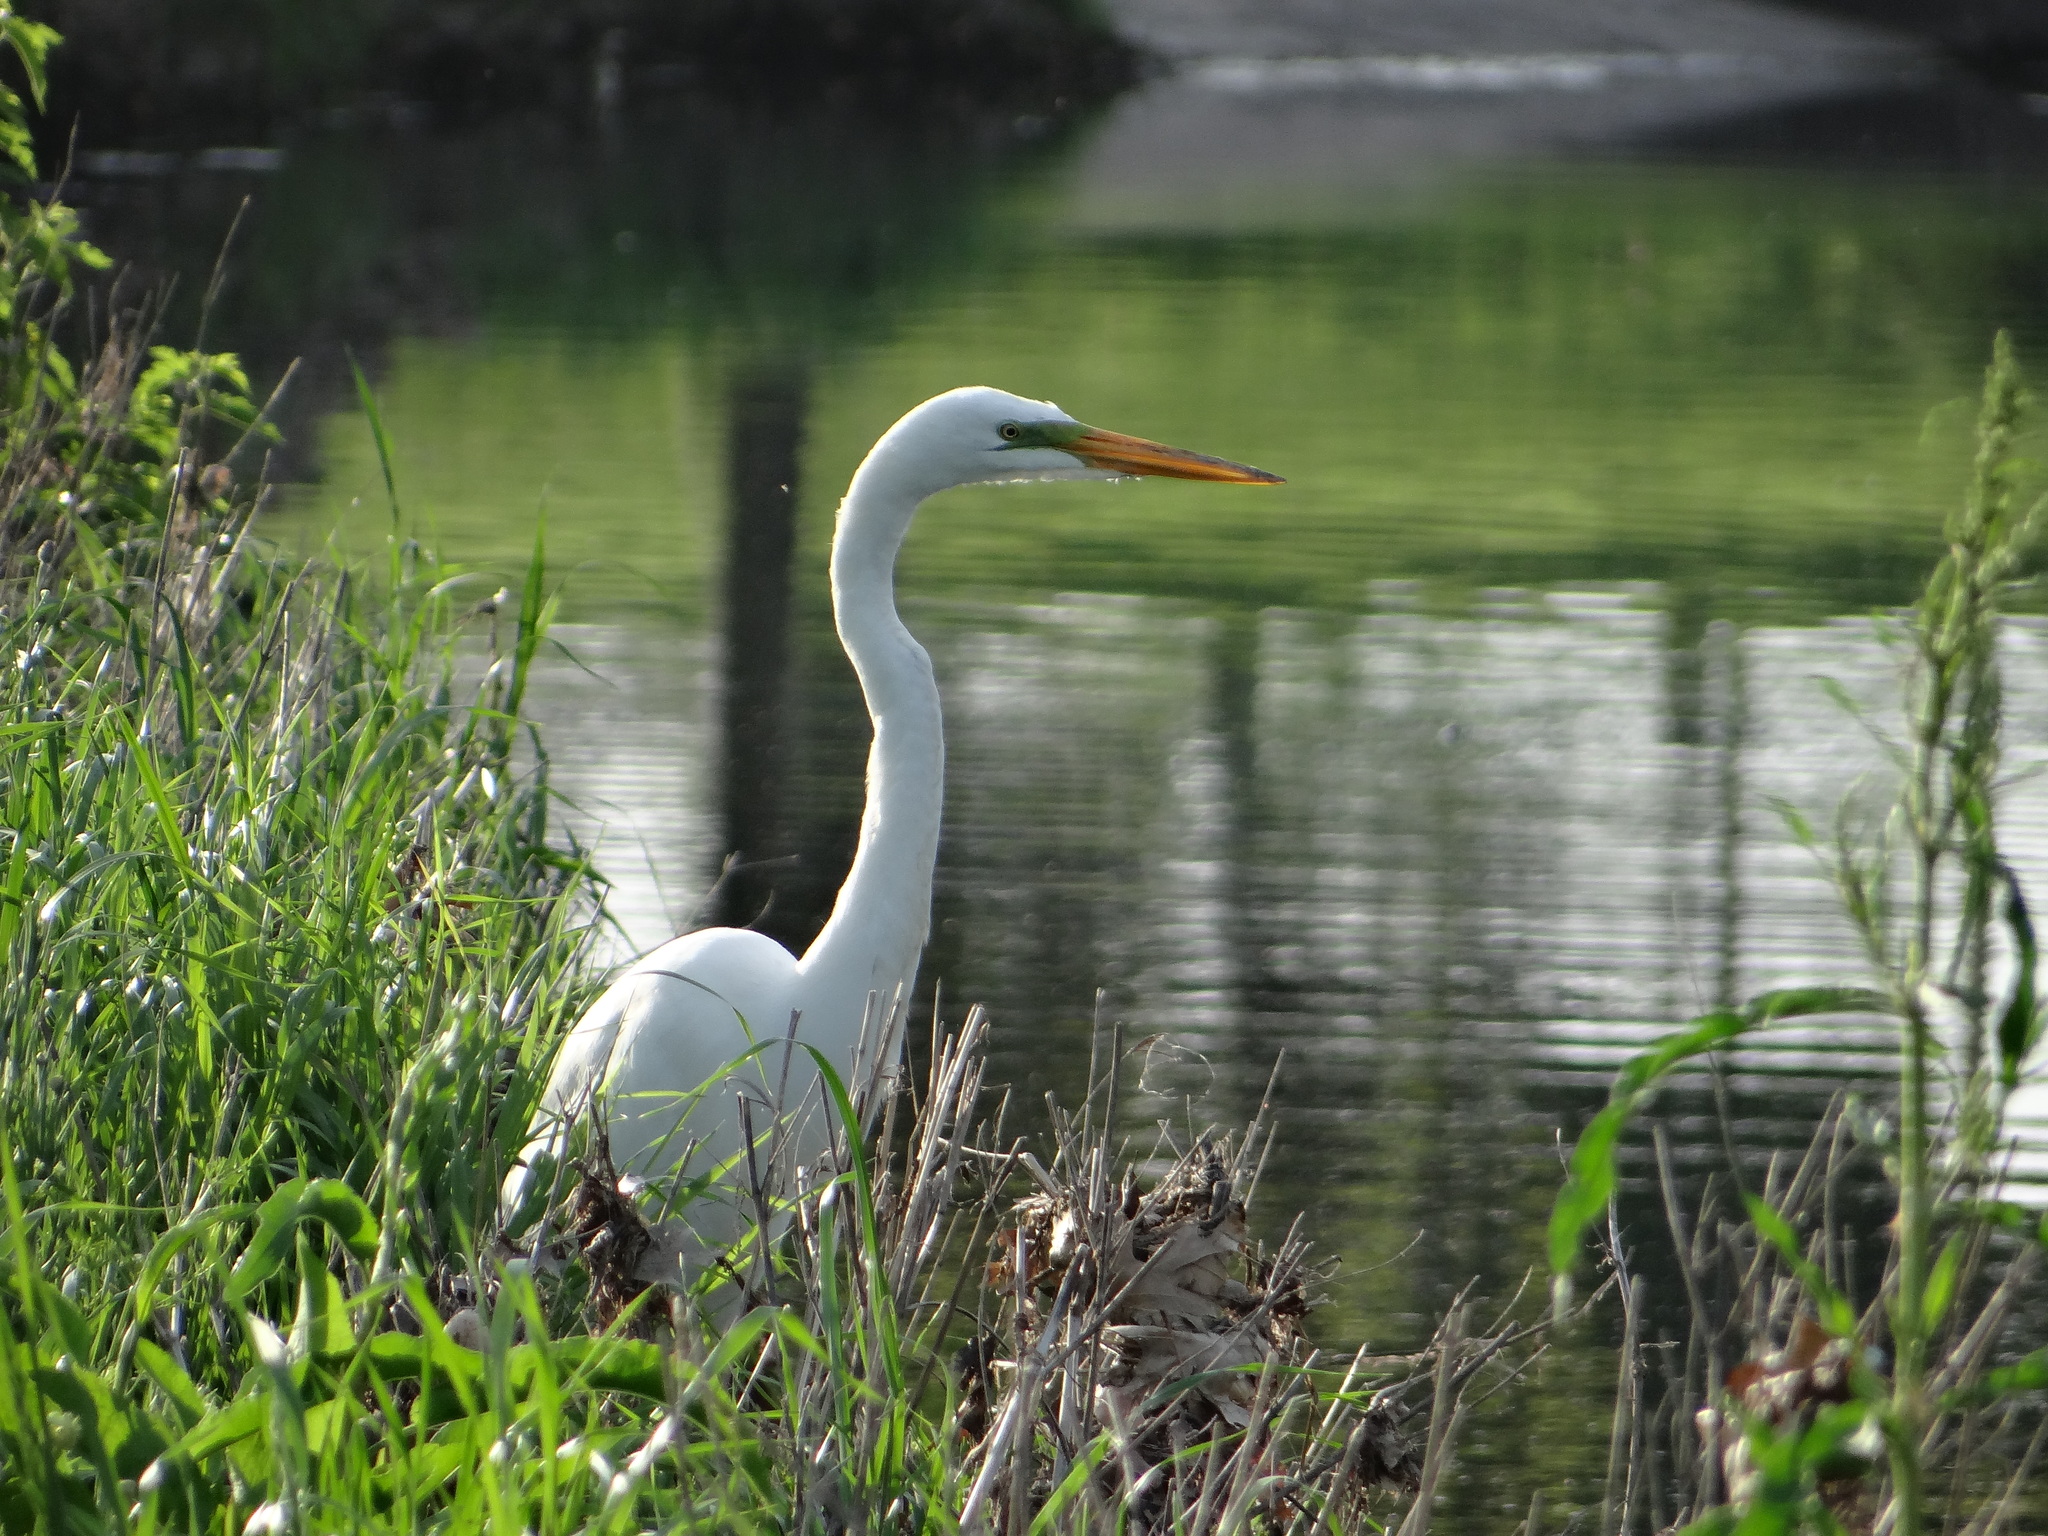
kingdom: Animalia
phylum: Chordata
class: Aves
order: Pelecaniformes
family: Ardeidae
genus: Ardea
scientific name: Ardea alba
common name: Great egret
